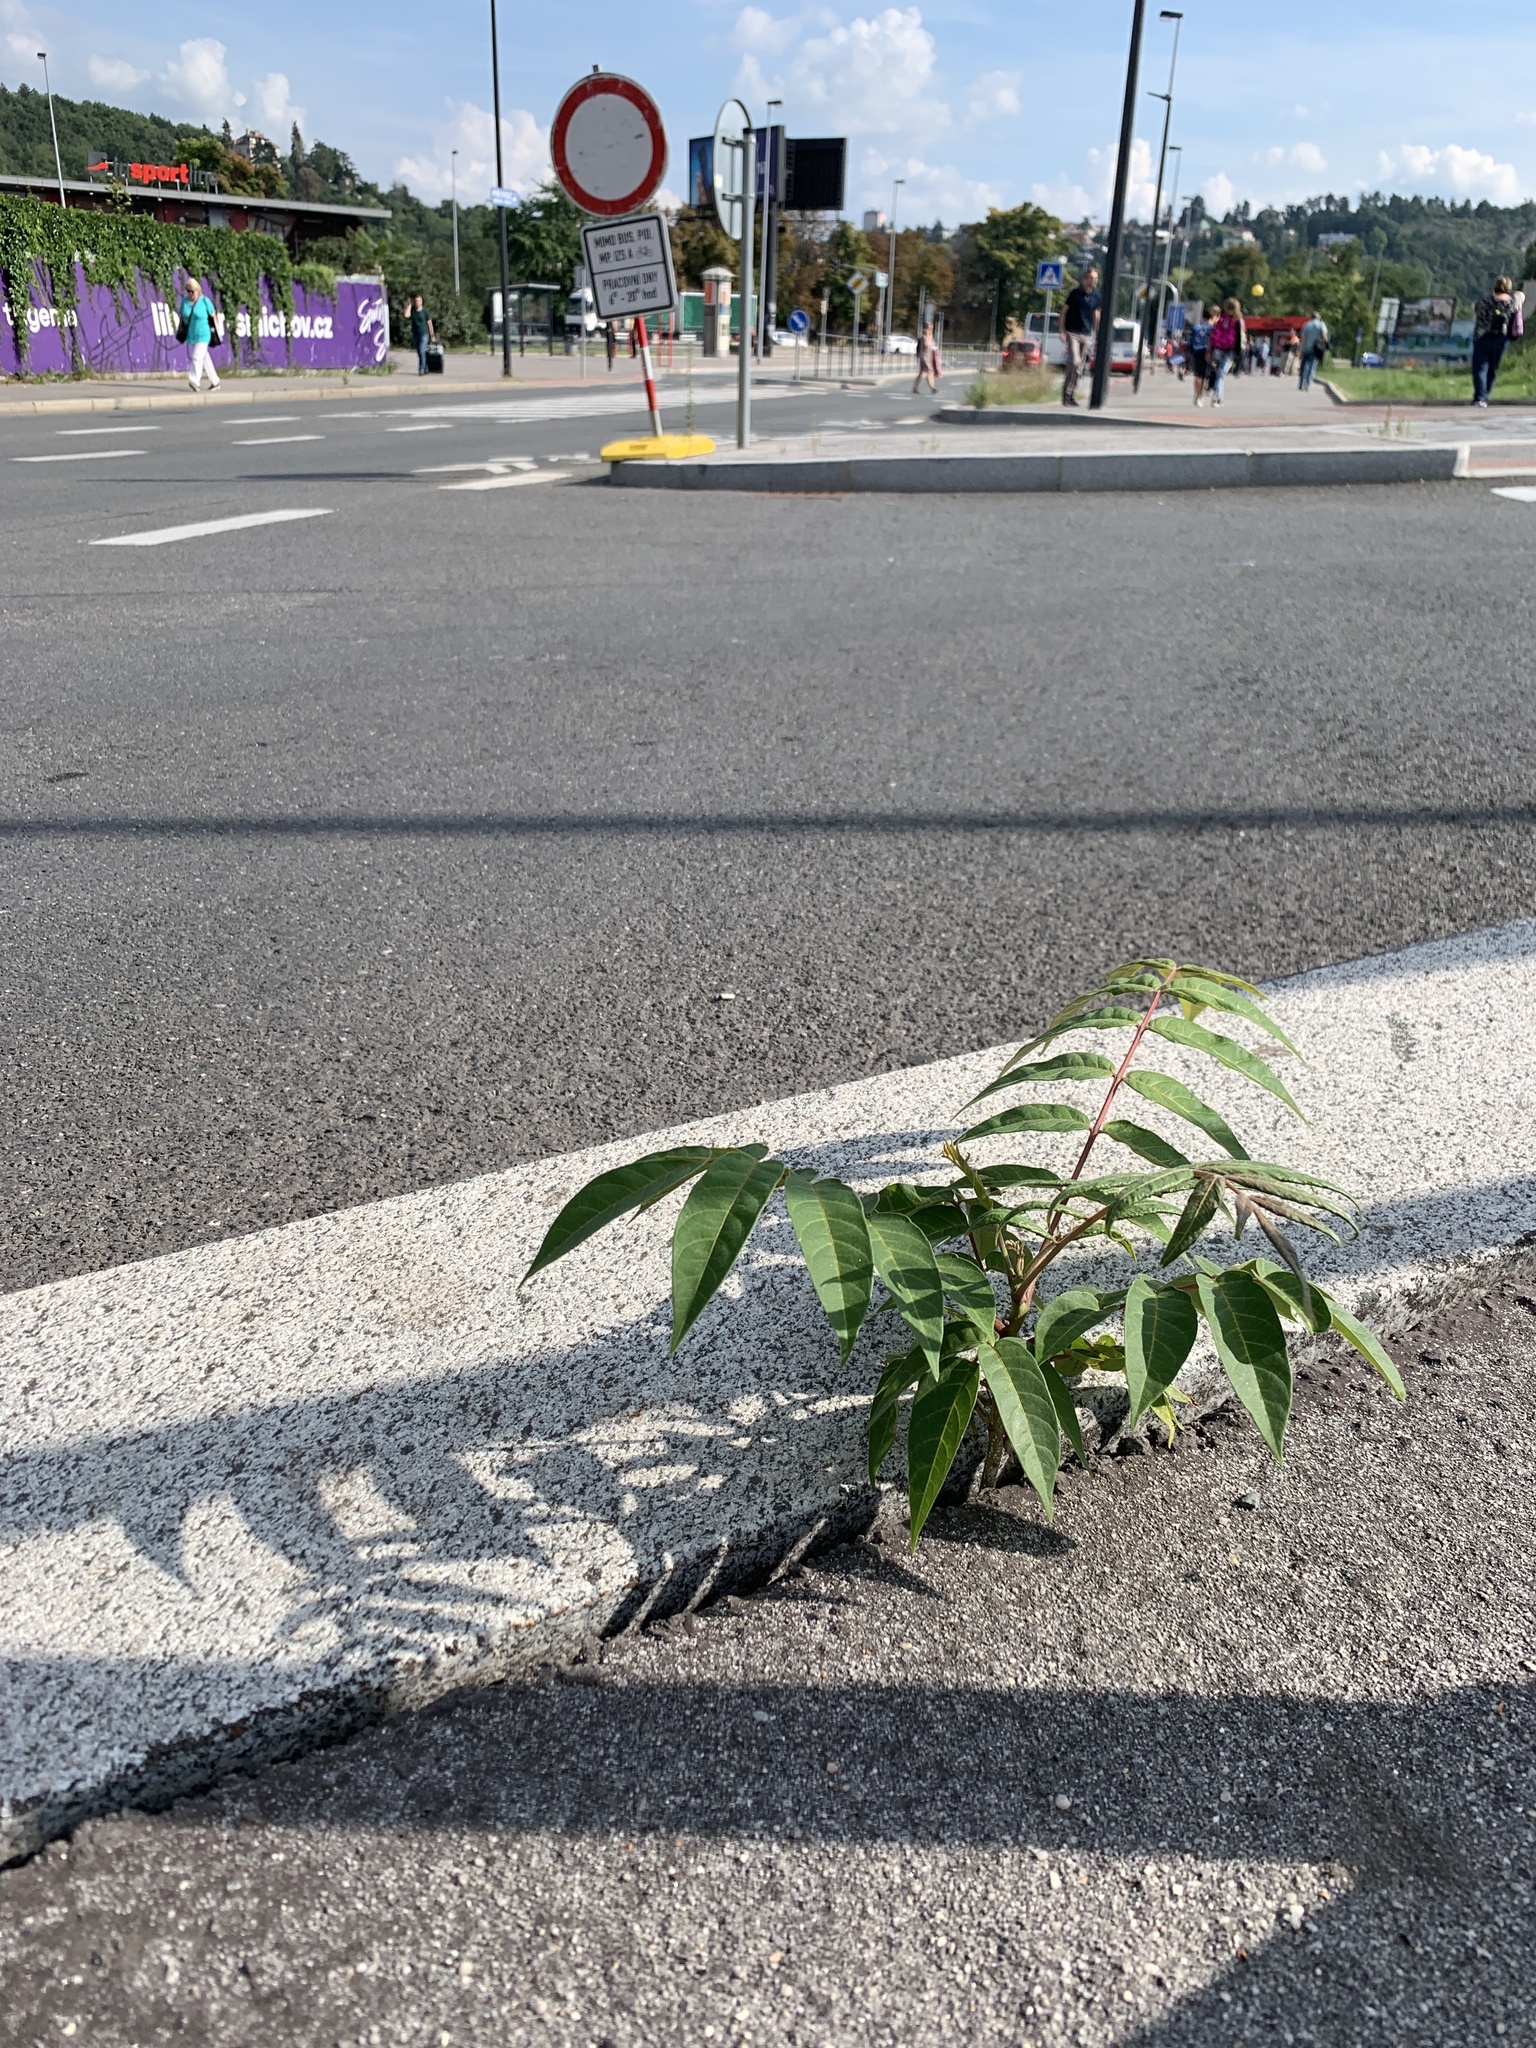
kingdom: Plantae
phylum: Tracheophyta
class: Magnoliopsida
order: Sapindales
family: Simaroubaceae
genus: Ailanthus
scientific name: Ailanthus altissima
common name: Tree-of-heaven
